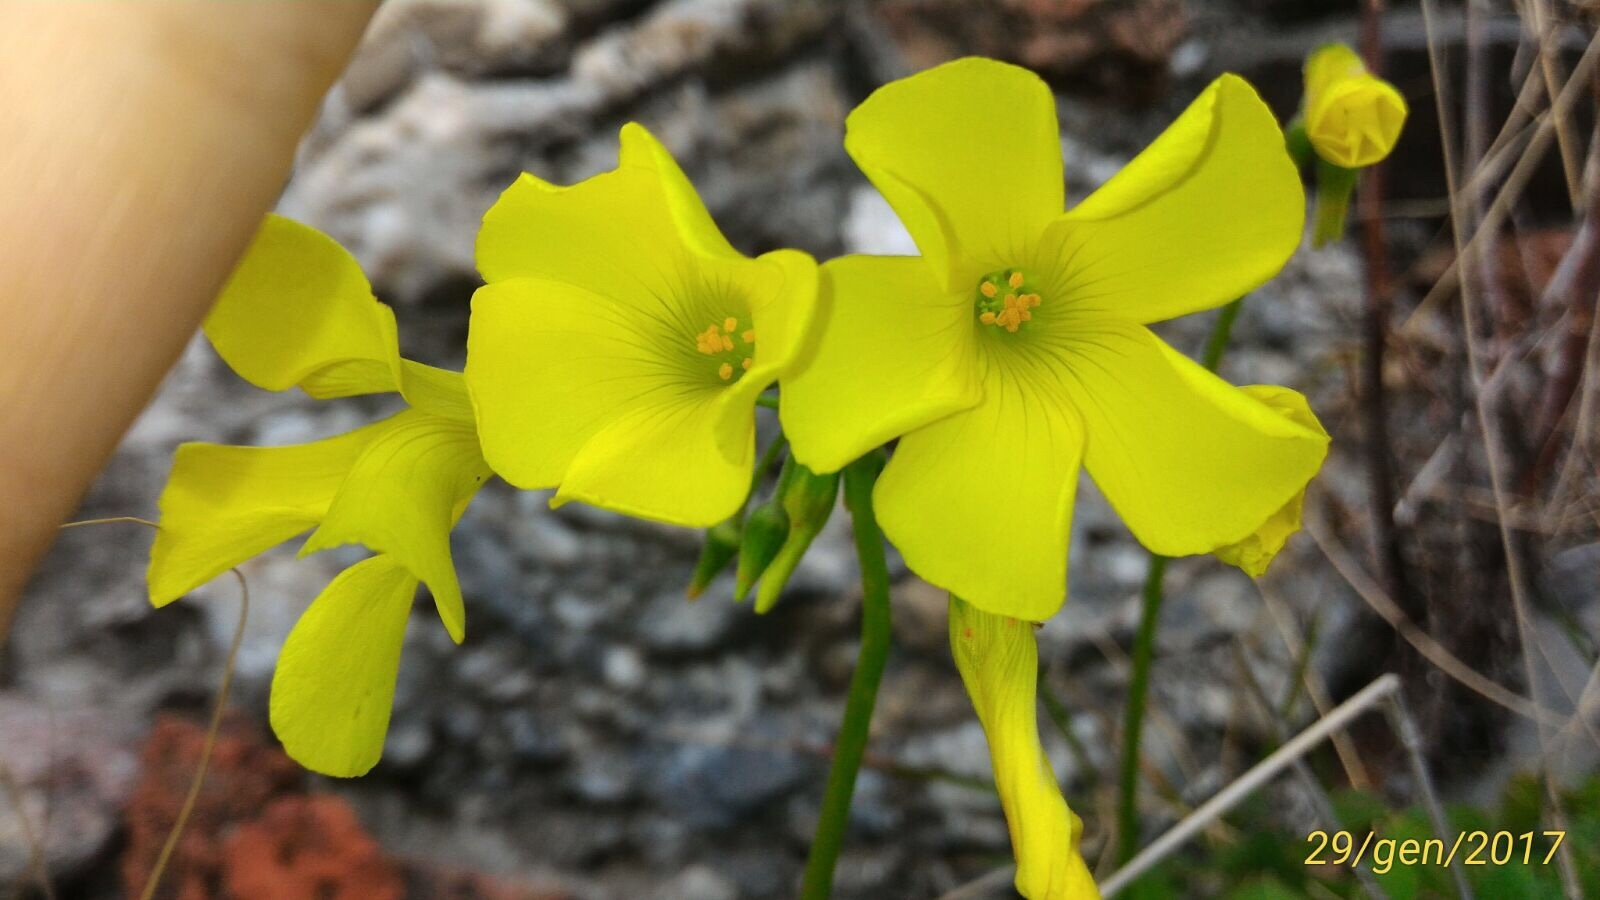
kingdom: Plantae
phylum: Tracheophyta
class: Magnoliopsida
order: Oxalidales
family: Oxalidaceae
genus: Oxalis
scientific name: Oxalis pes-caprae
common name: Bermuda-buttercup
